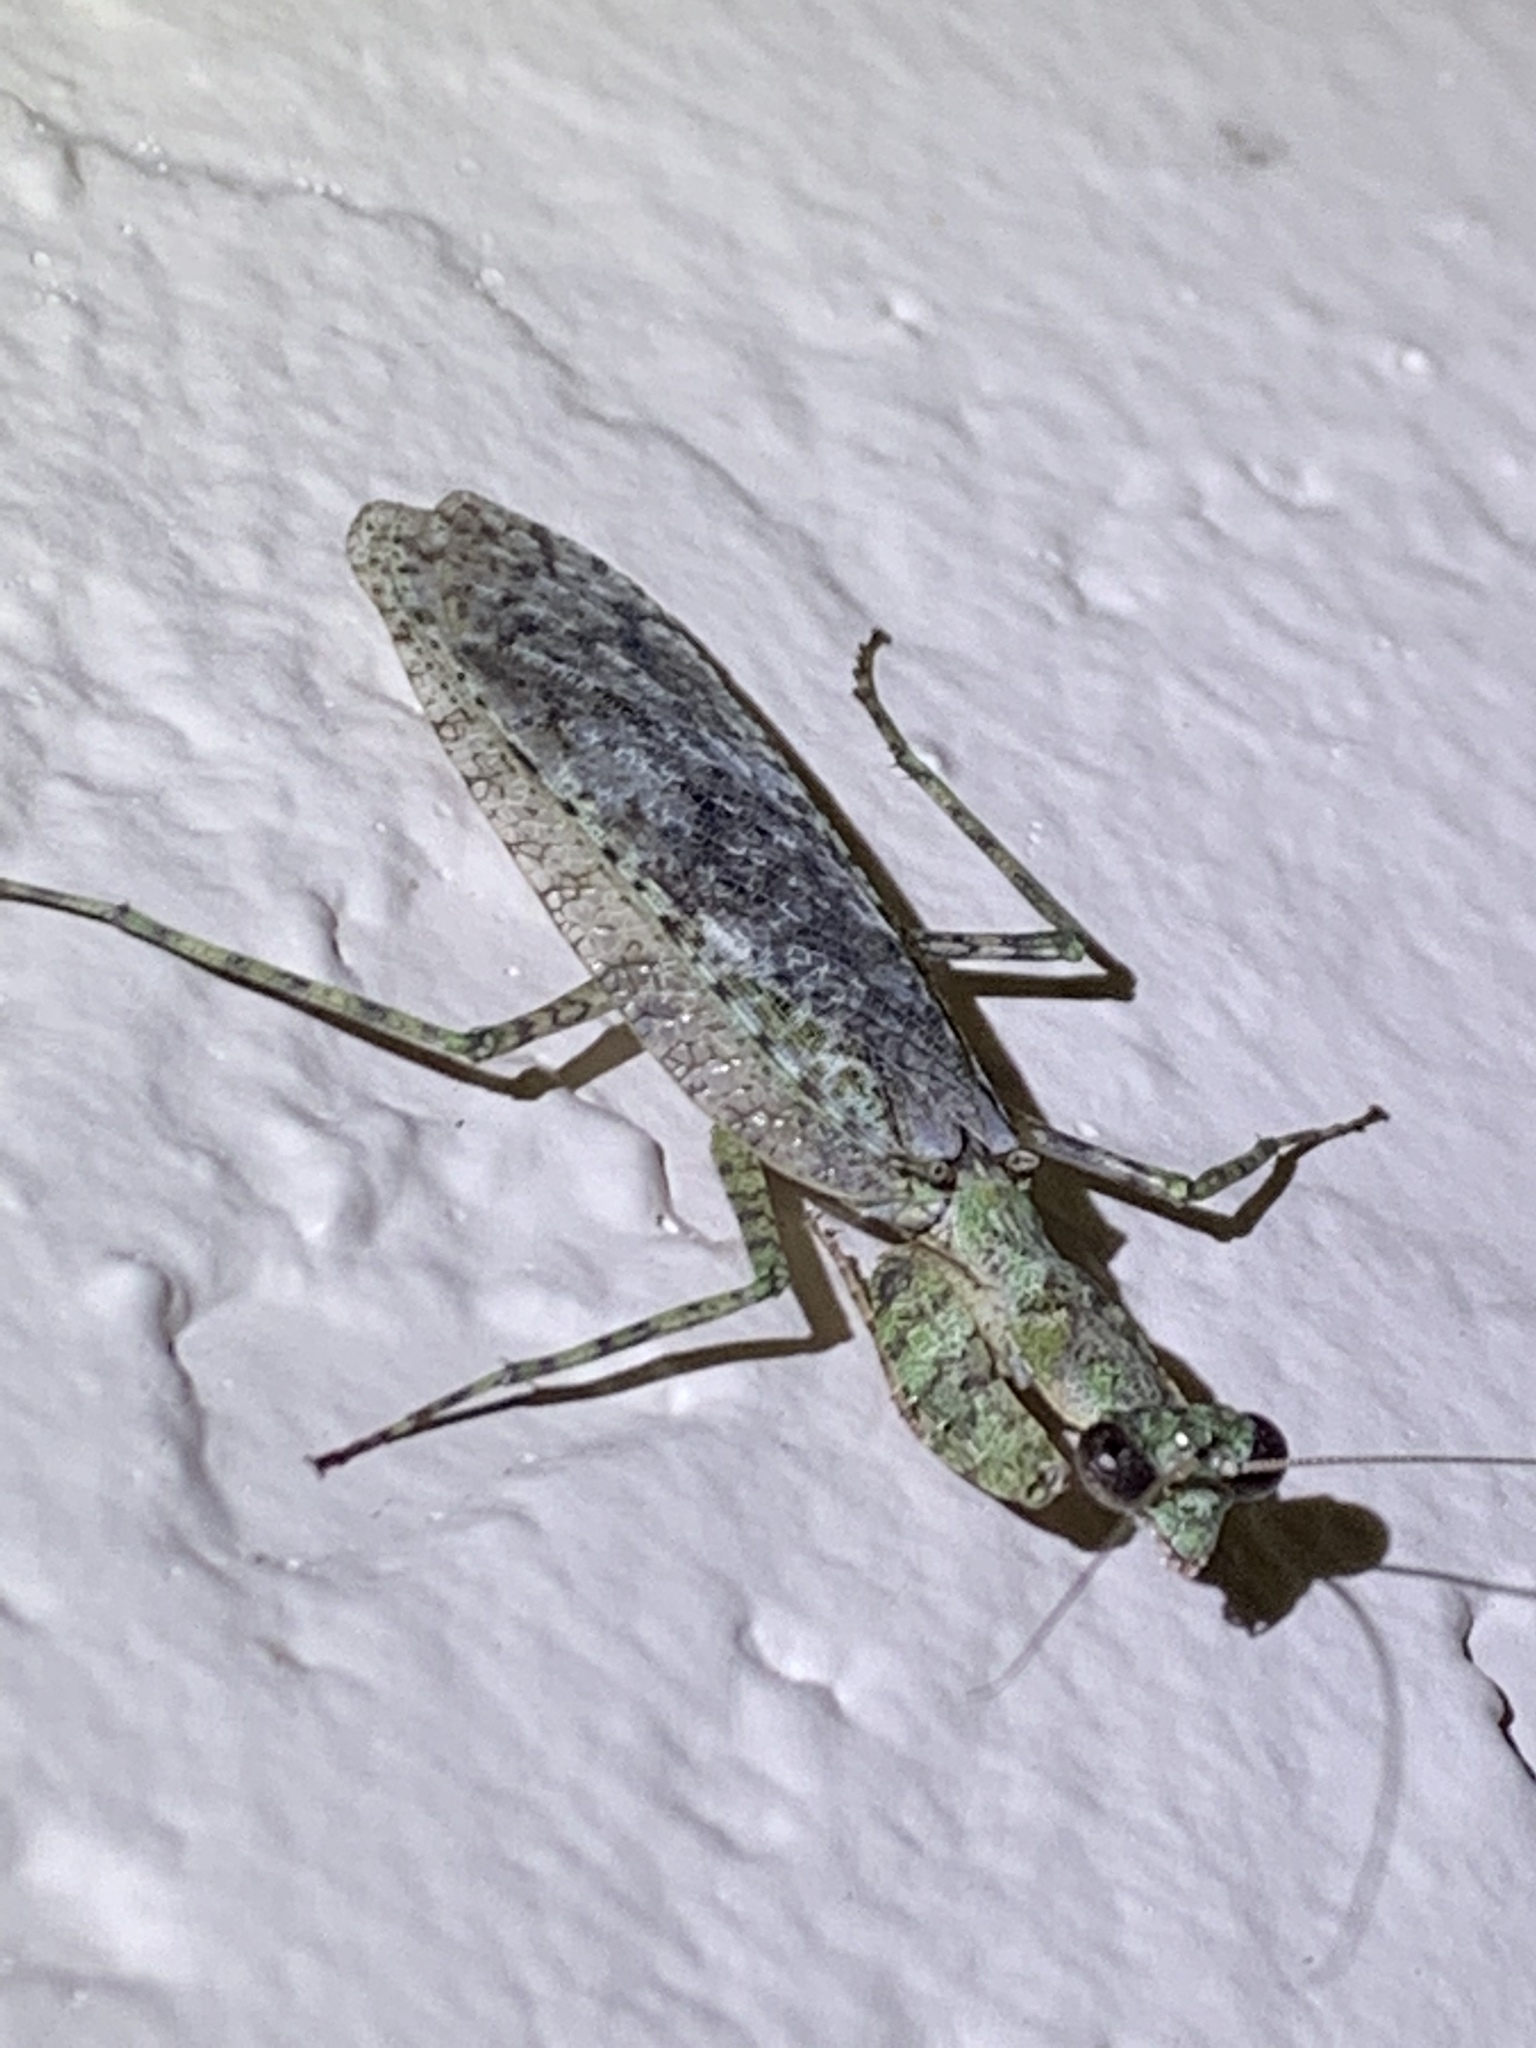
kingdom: Animalia
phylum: Arthropoda
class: Insecta
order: Mantodea
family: Epaphroditidae
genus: Gonatista
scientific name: Gonatista grisea
